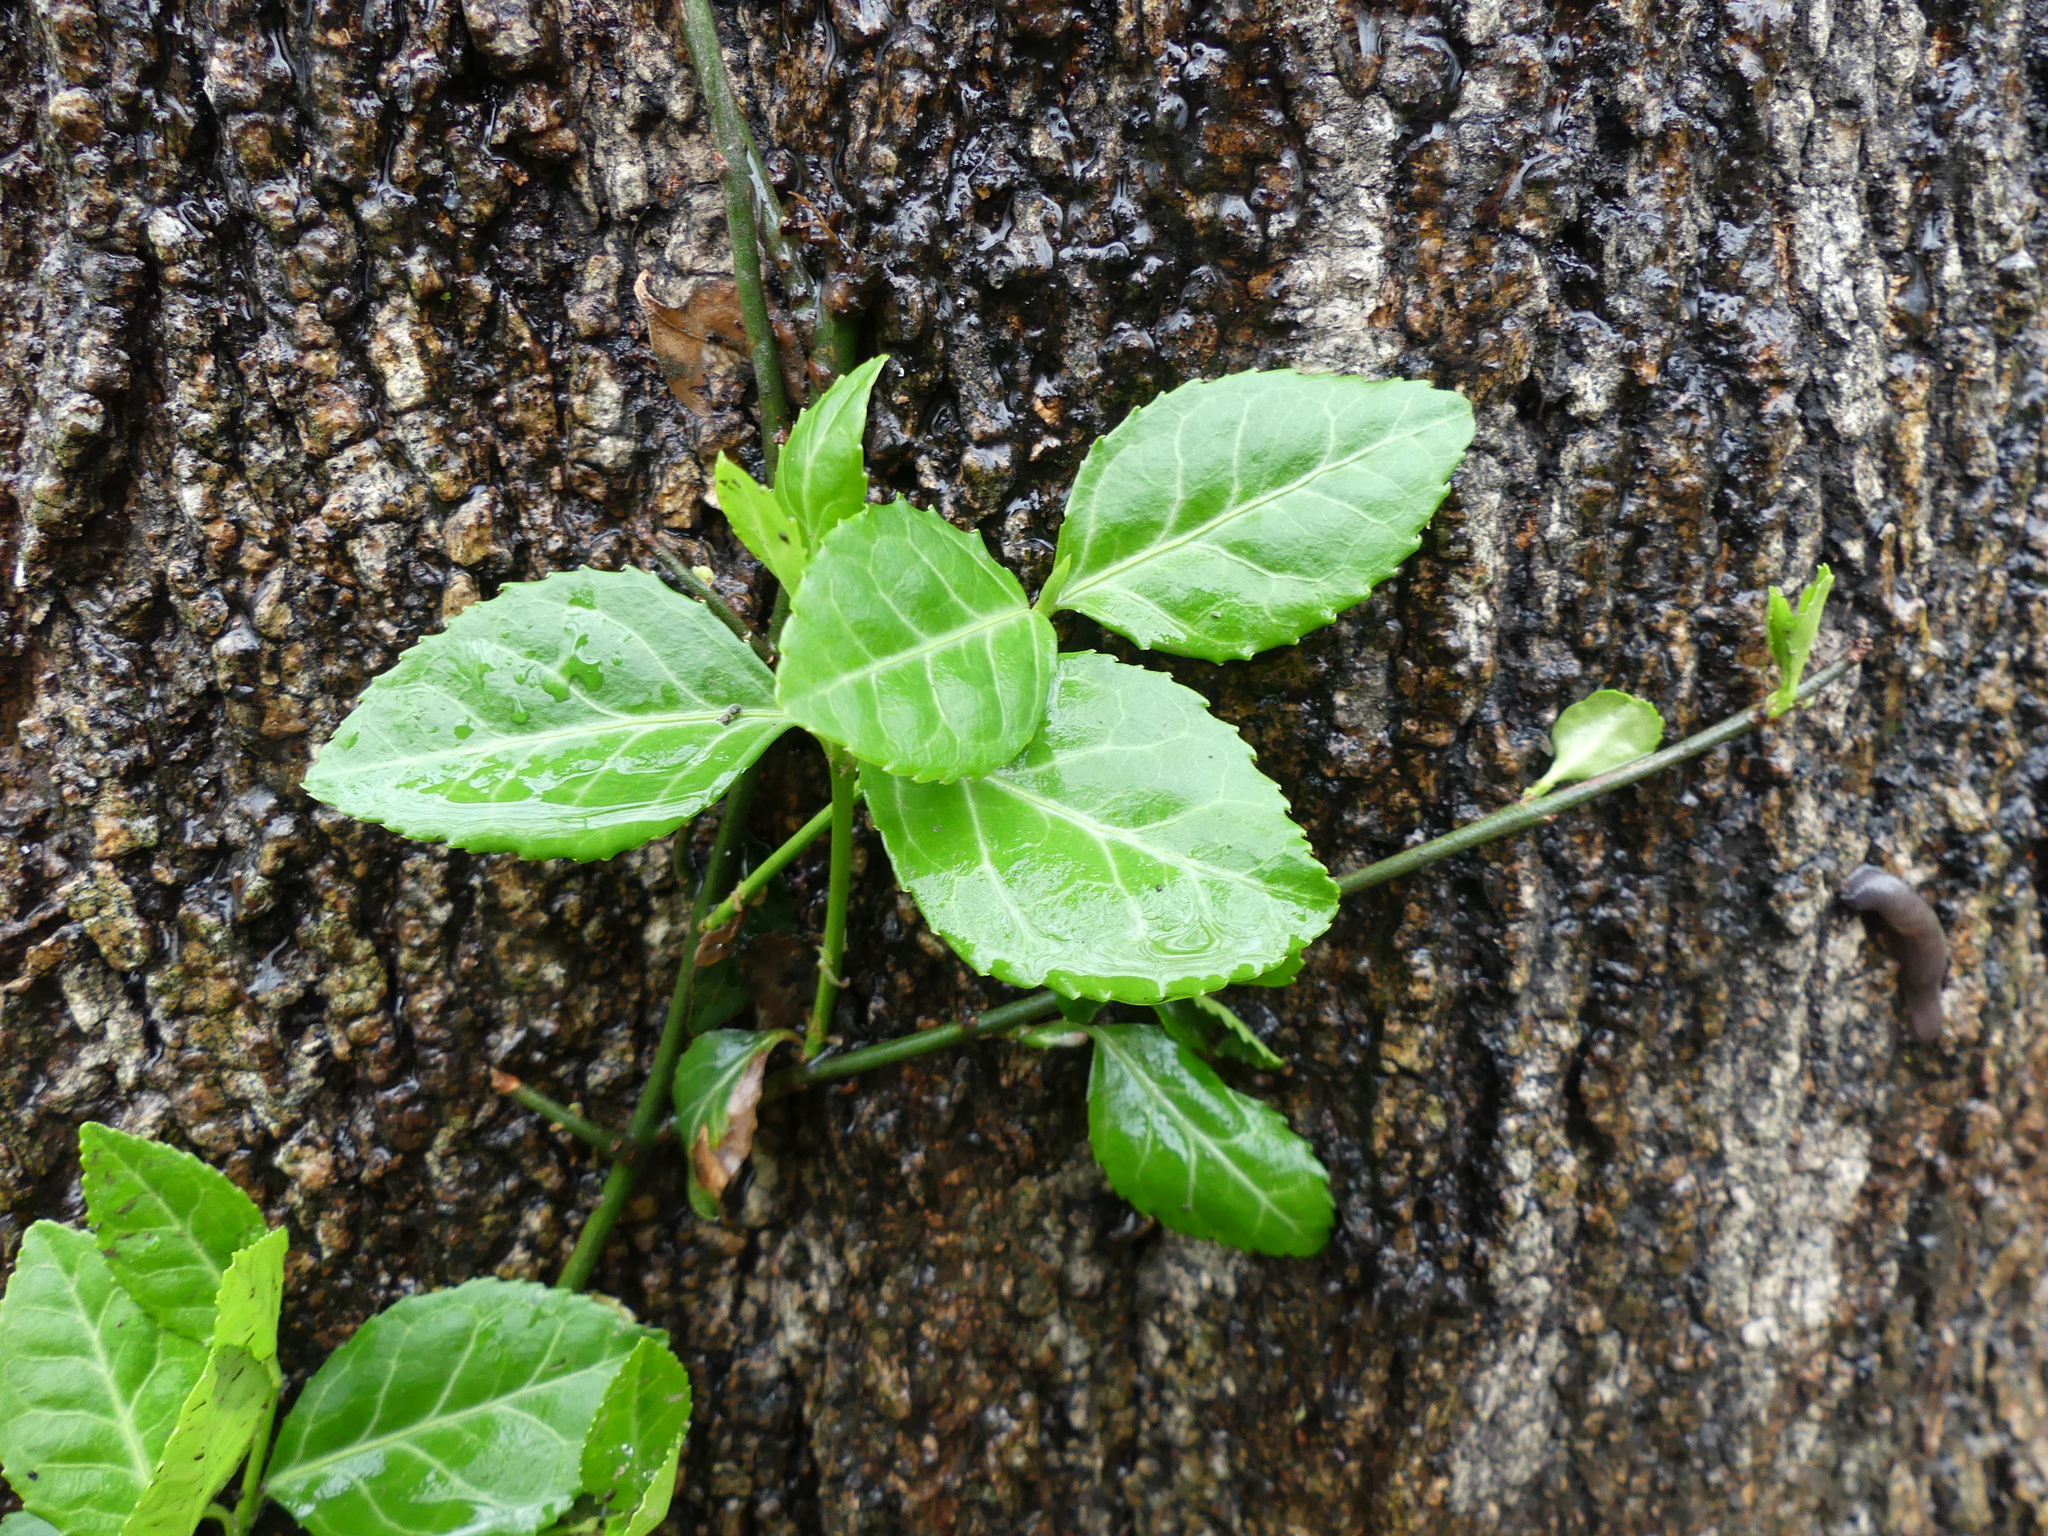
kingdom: Plantae
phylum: Tracheophyta
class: Magnoliopsida
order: Celastrales
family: Celastraceae
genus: Euonymus
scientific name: Euonymus fortunei
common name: Climbing euonymus
